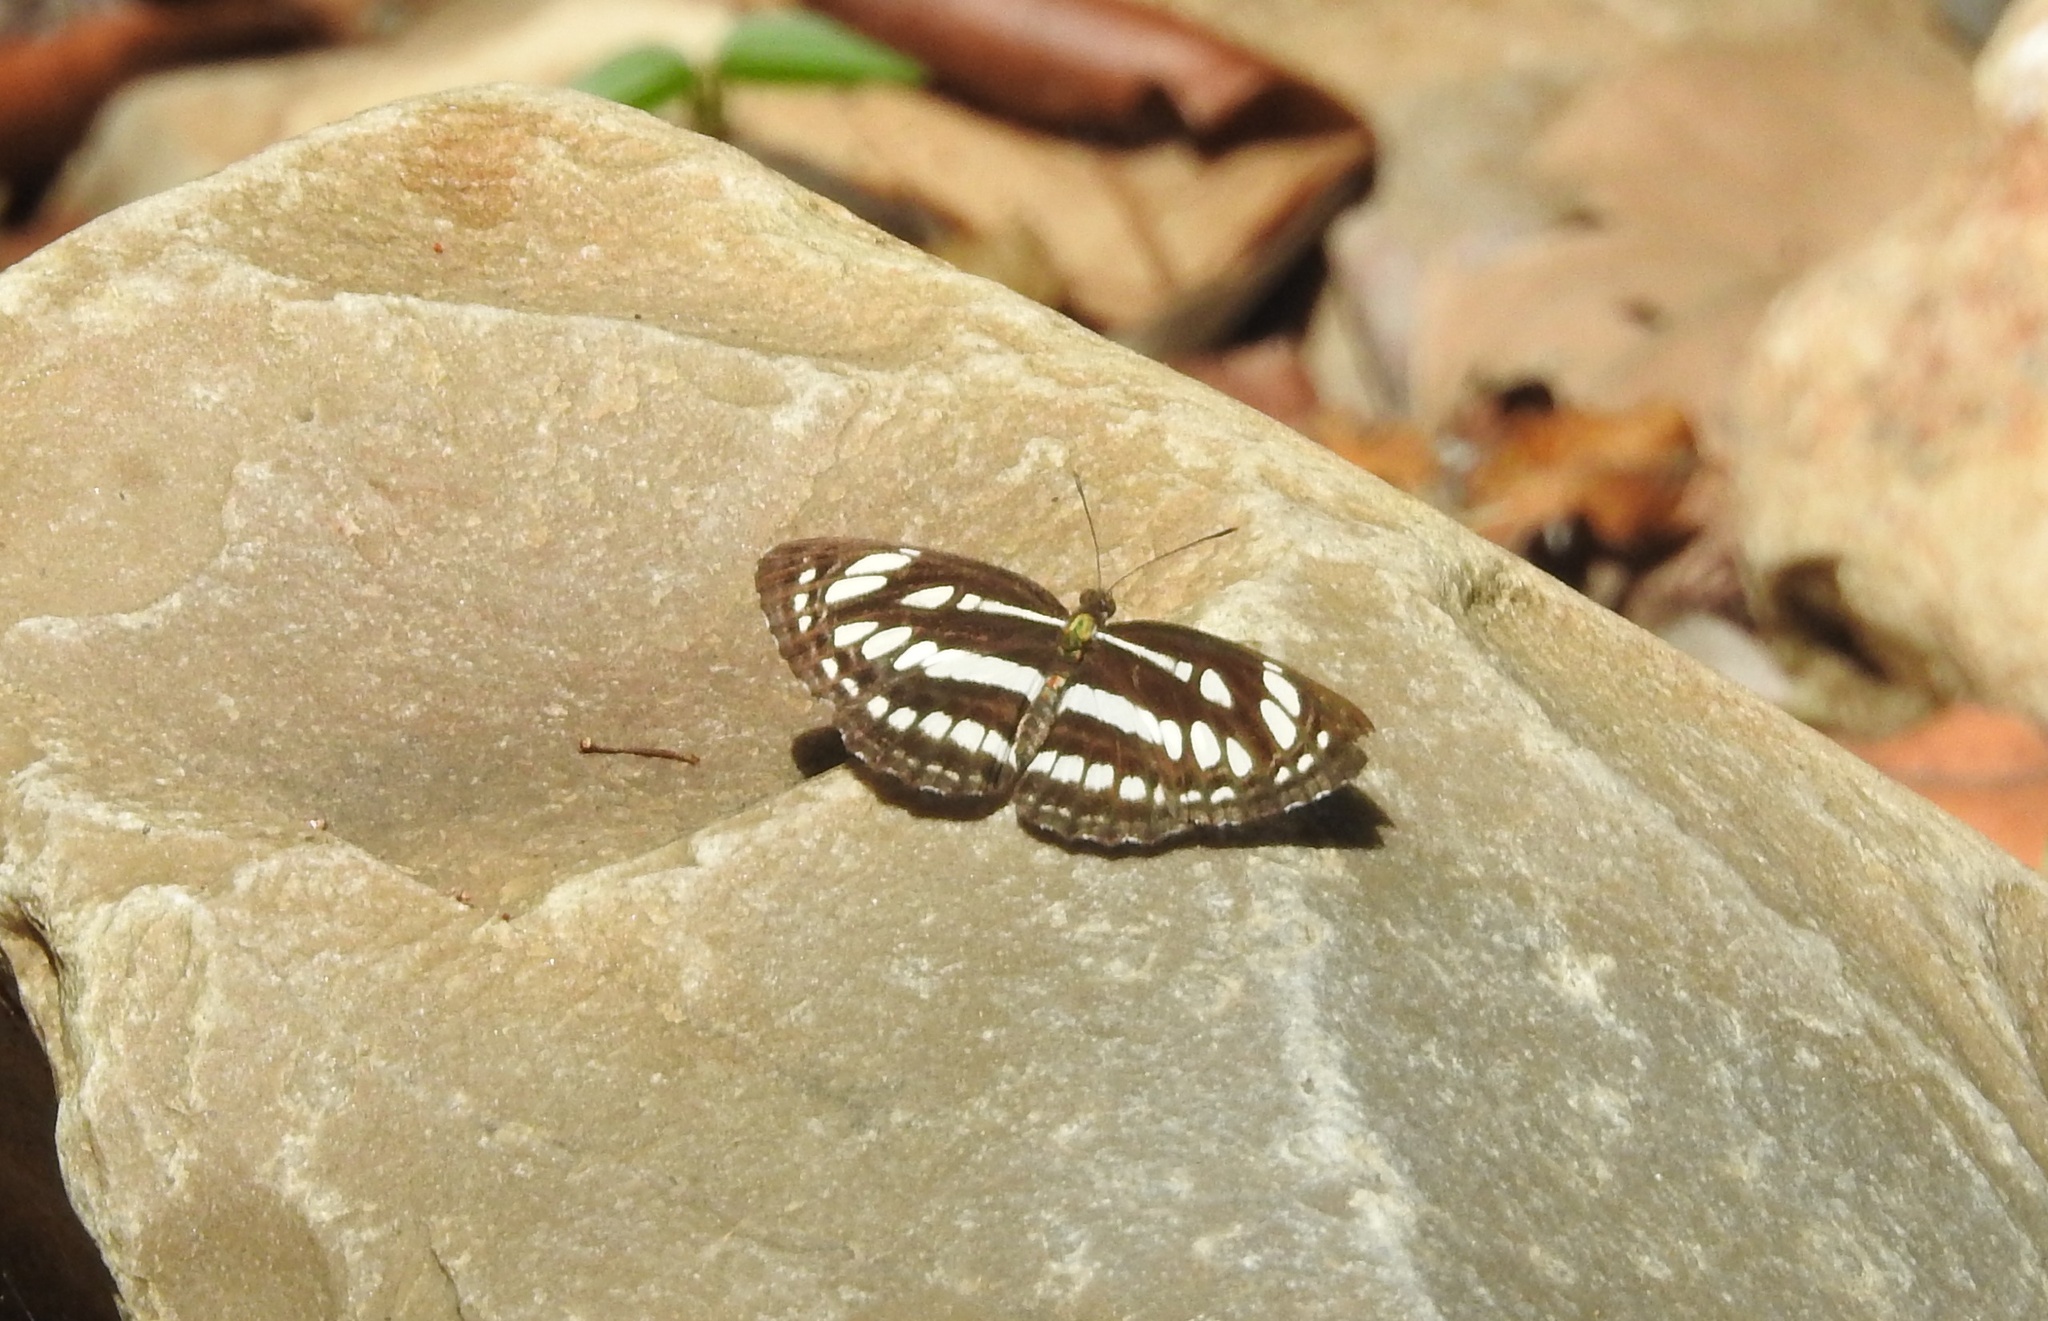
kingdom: Animalia
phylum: Arthropoda
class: Insecta
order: Lepidoptera
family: Nymphalidae
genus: Neptis
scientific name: Neptis hylas
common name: Common sailer
